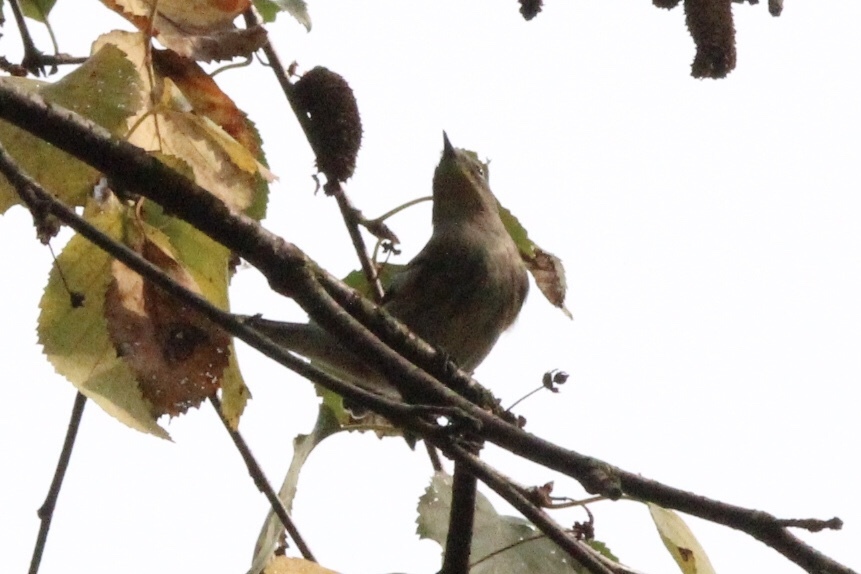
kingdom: Animalia
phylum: Chordata
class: Aves
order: Passeriformes
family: Parulidae
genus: Setophaga
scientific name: Setophaga coronata
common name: Myrtle warbler
